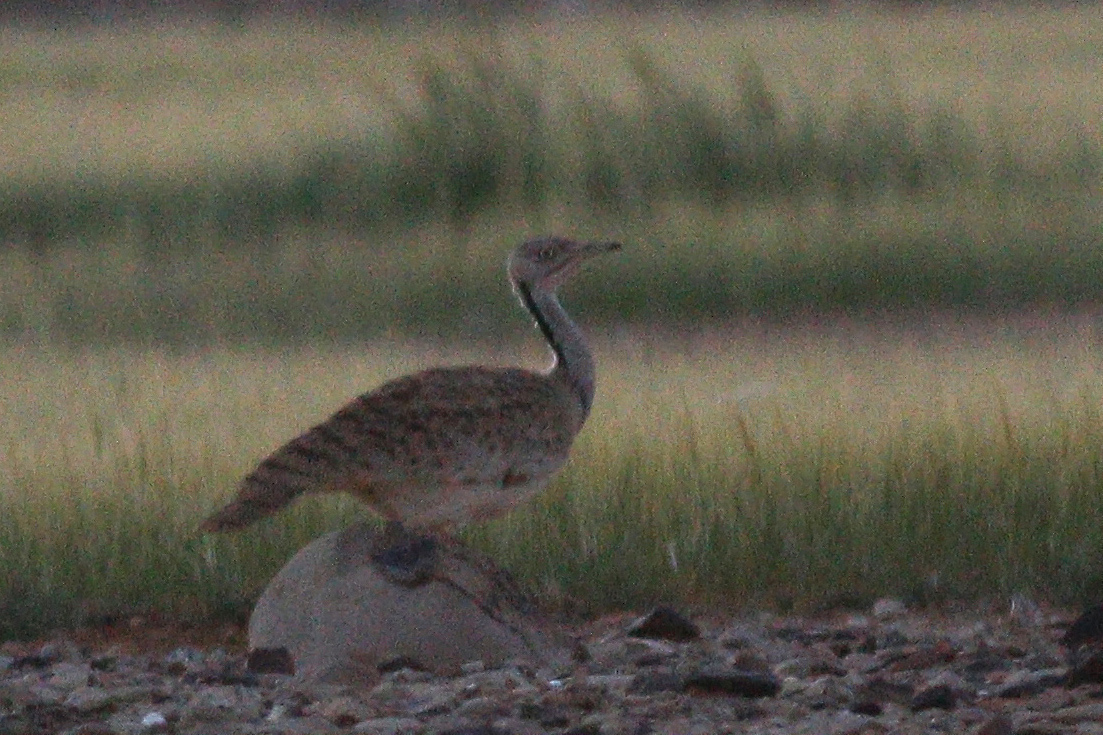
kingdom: Animalia
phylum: Chordata
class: Aves
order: Otidiformes
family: Otididae
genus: Chlamydotis
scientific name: Chlamydotis macqueenii
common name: Macqueen's bustard
